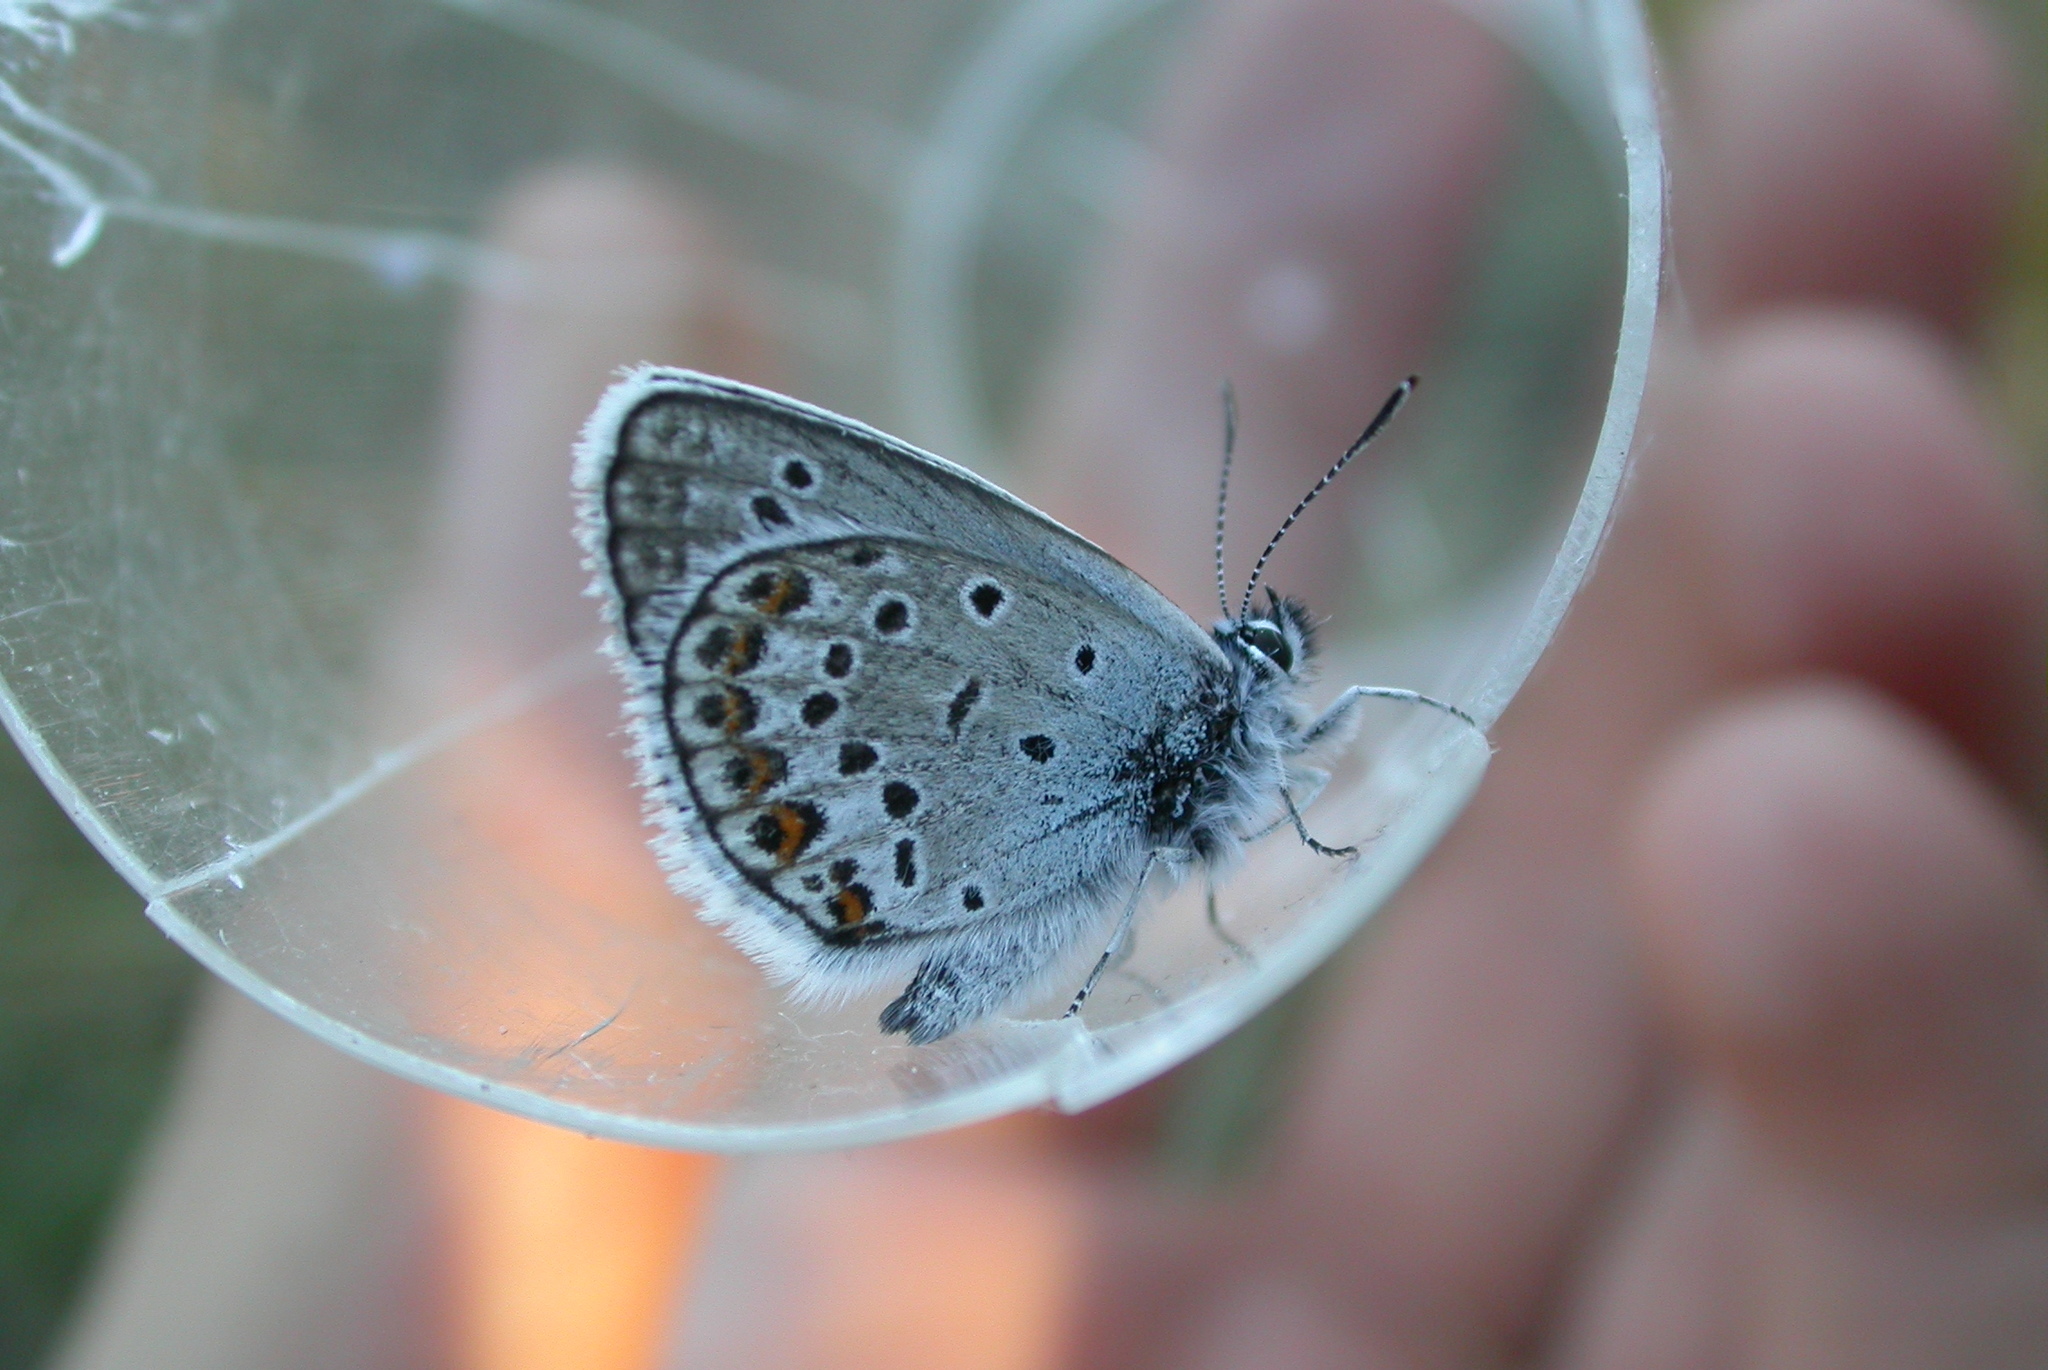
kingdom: Animalia
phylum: Arthropoda
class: Insecta
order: Lepidoptera
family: Lycaenidae
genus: Plebejus
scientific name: Plebejus argus
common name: Silver-studded blue
